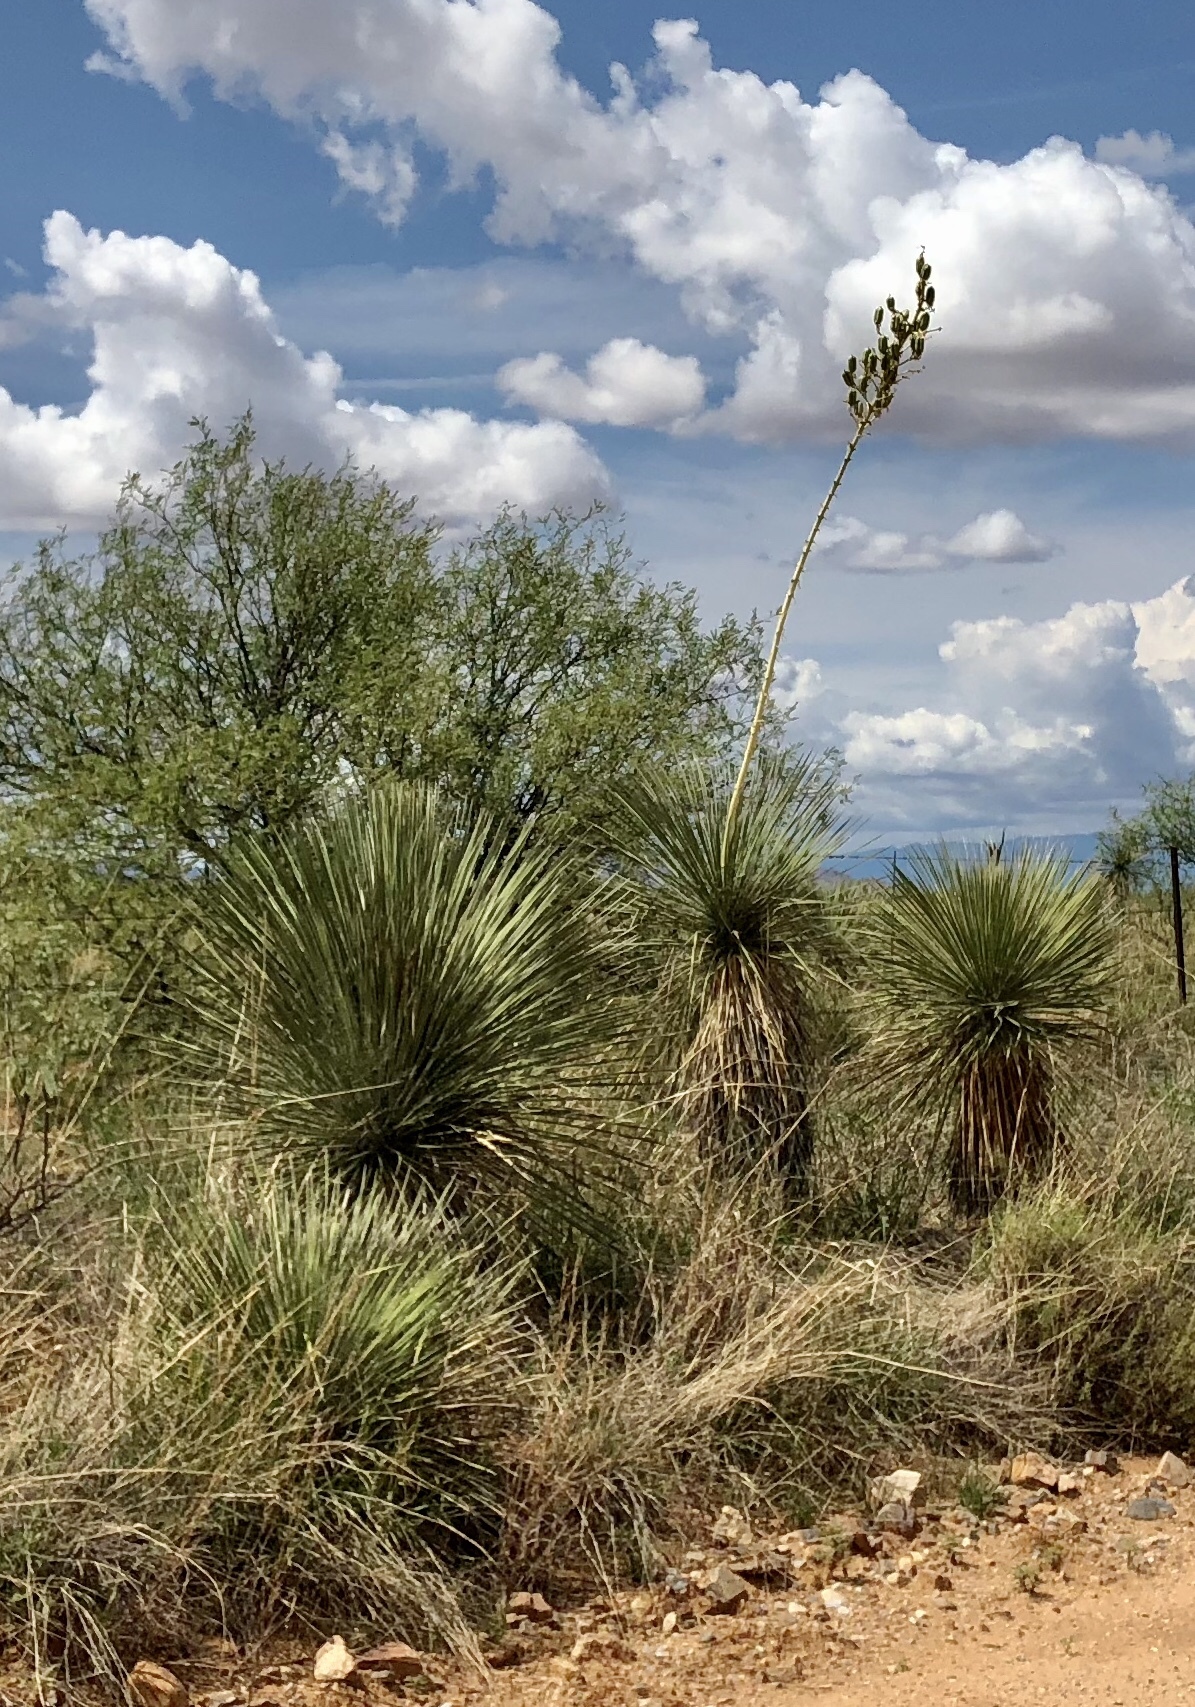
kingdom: Plantae
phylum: Tracheophyta
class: Liliopsida
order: Asparagales
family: Asparagaceae
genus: Yucca
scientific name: Yucca elata
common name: Palmella
